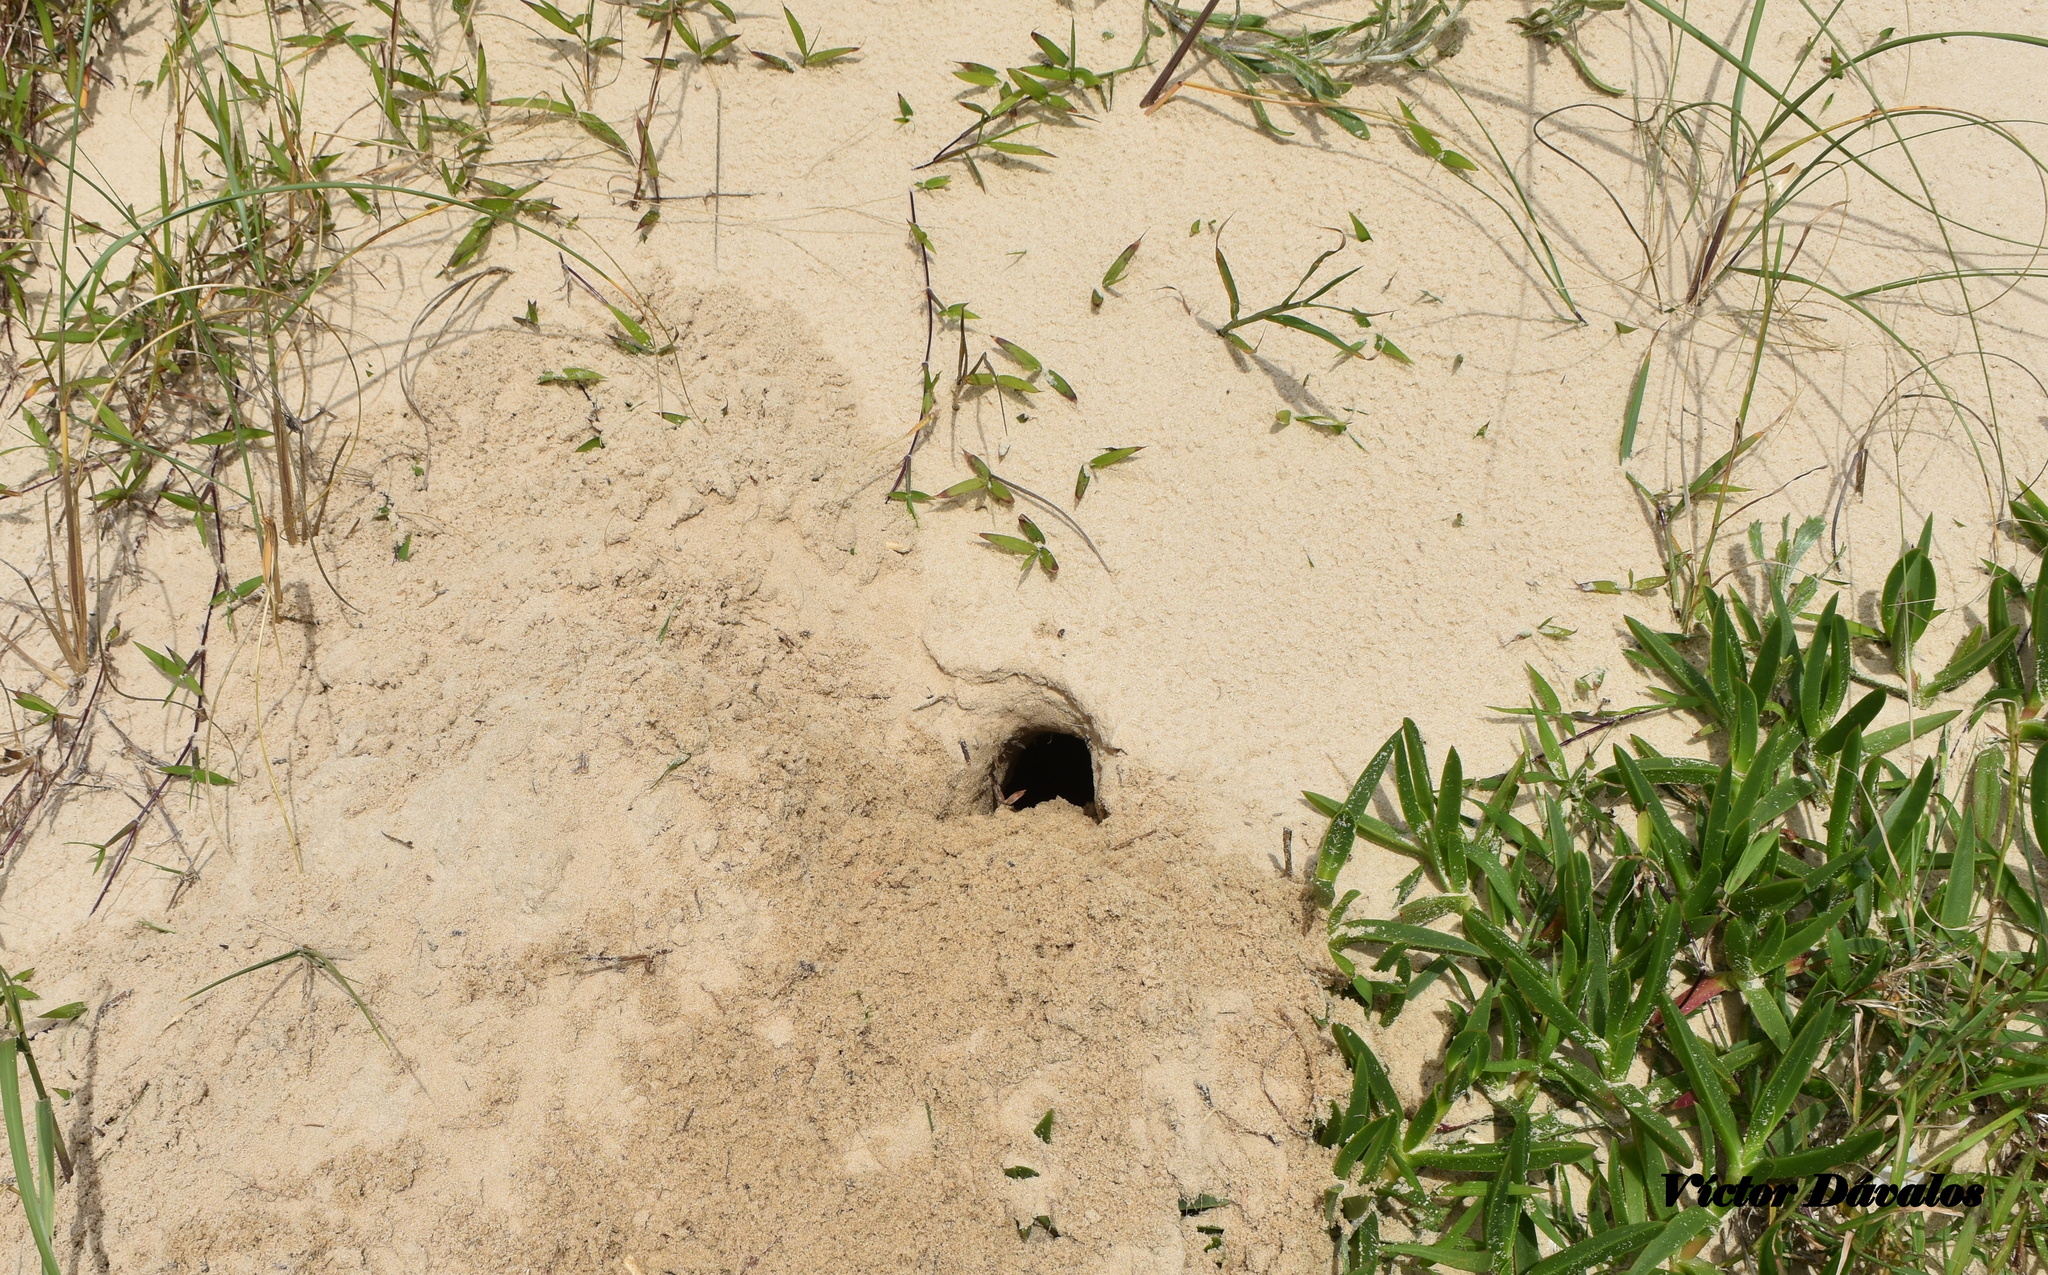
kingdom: Animalia
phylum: Chordata
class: Mammalia
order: Rodentia
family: Ctenomyidae
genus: Ctenomys
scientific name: Ctenomys flamarioni
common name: Tuco-tuco of the dunes
